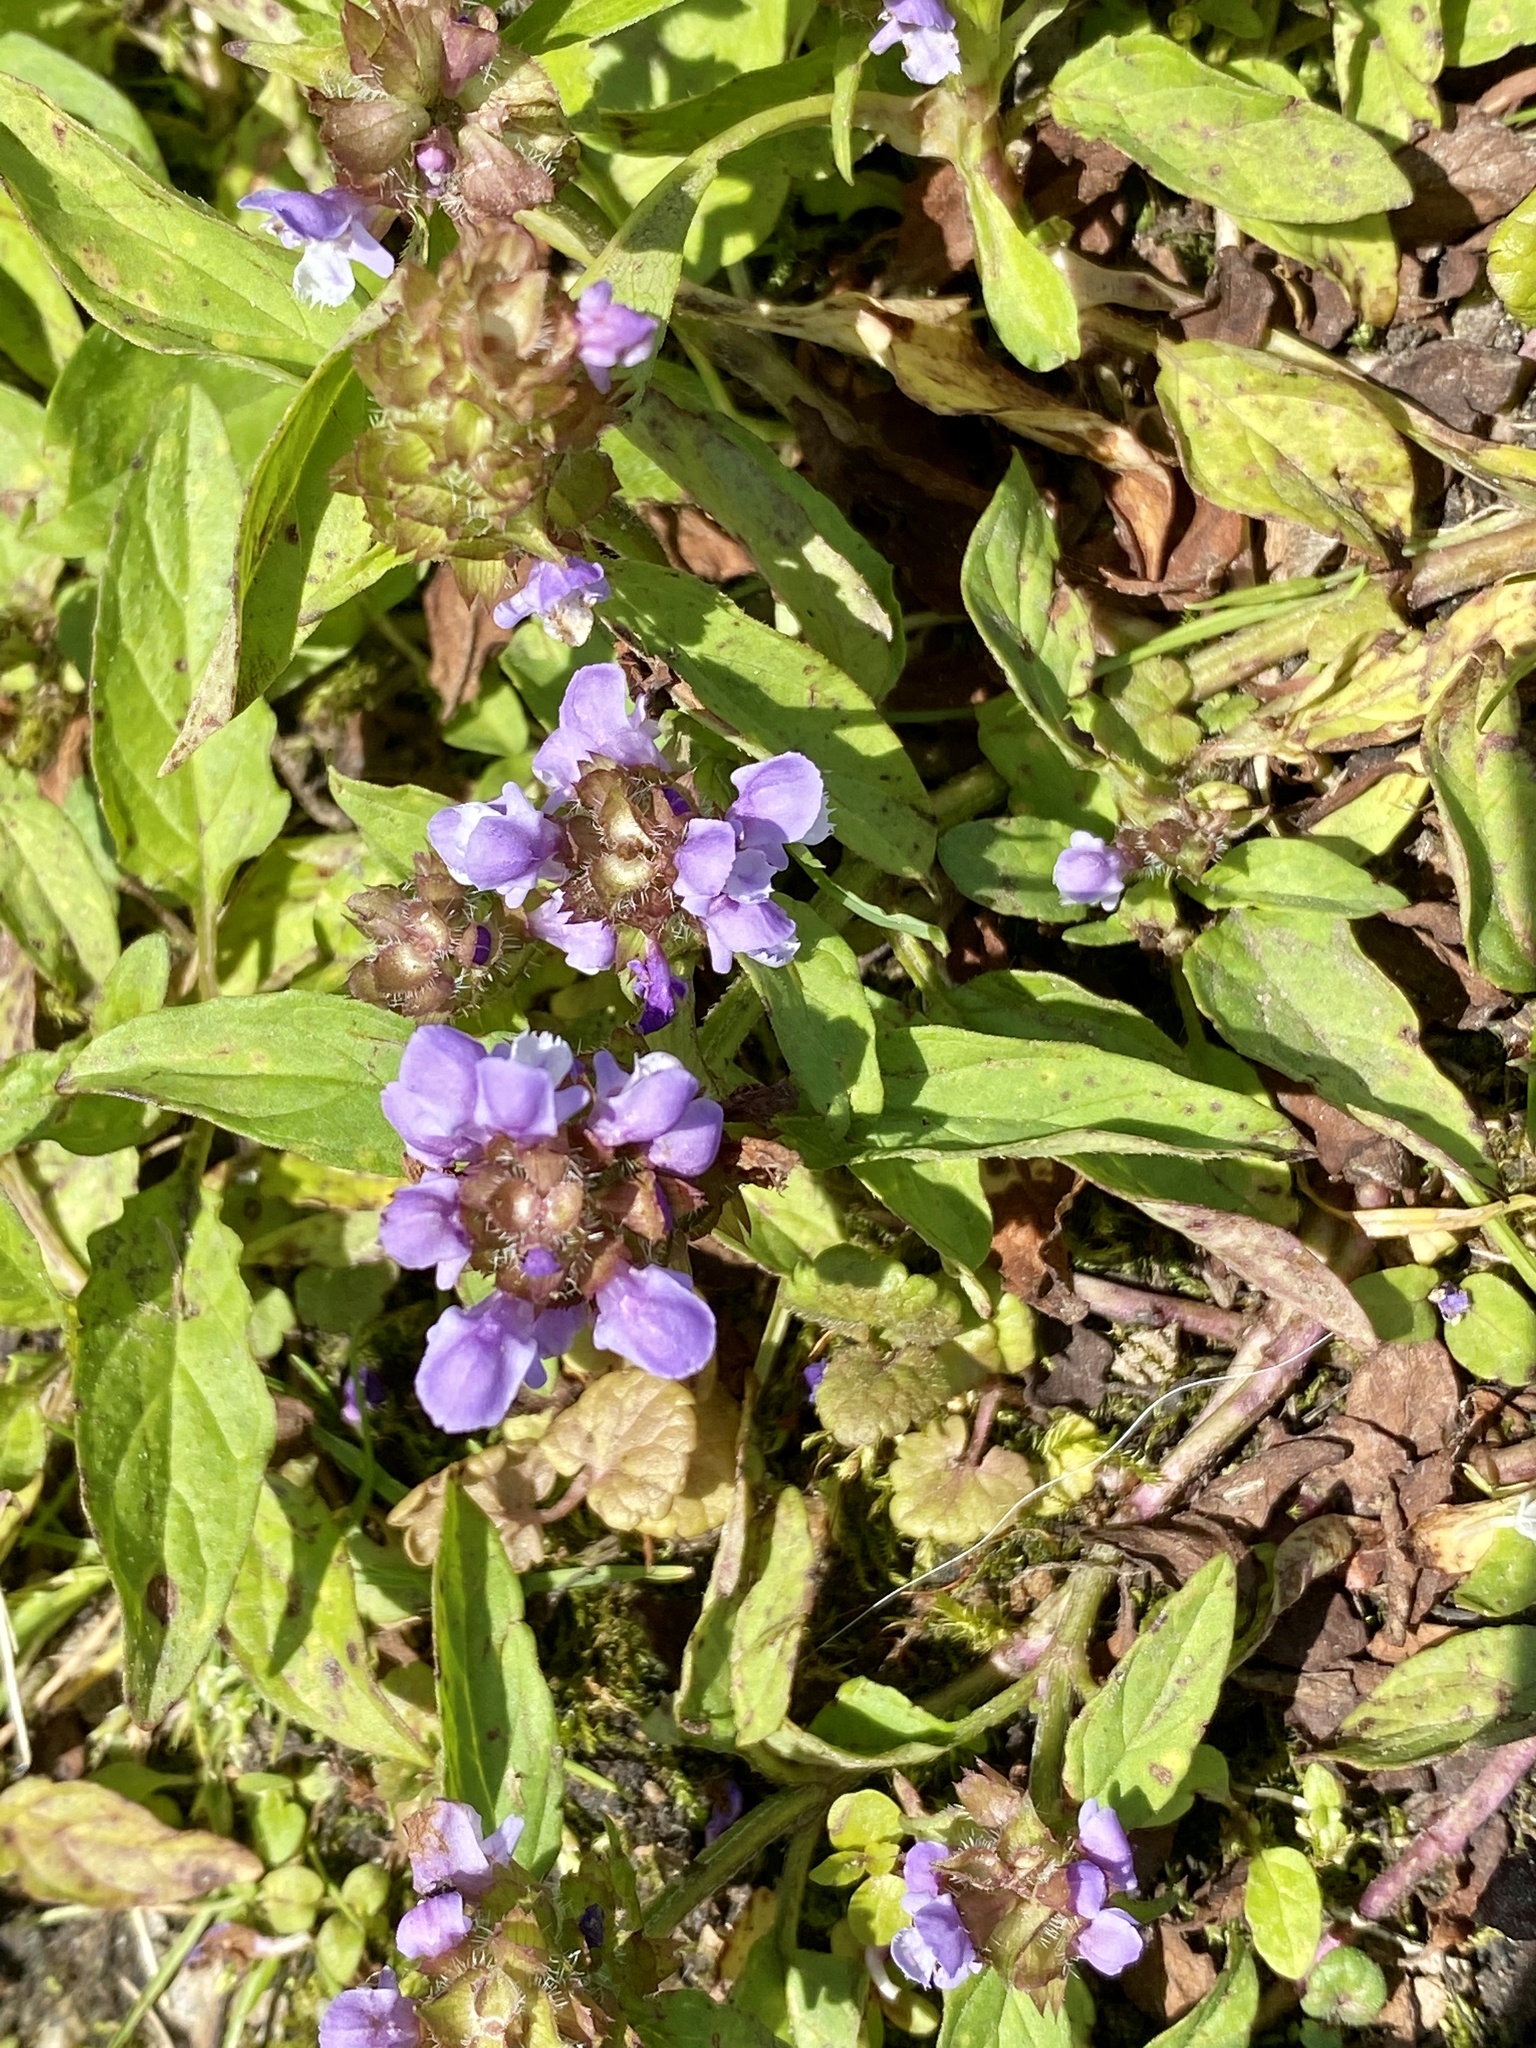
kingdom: Plantae
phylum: Tracheophyta
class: Magnoliopsida
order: Lamiales
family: Lamiaceae
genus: Prunella
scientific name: Prunella vulgaris
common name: Heal-all
